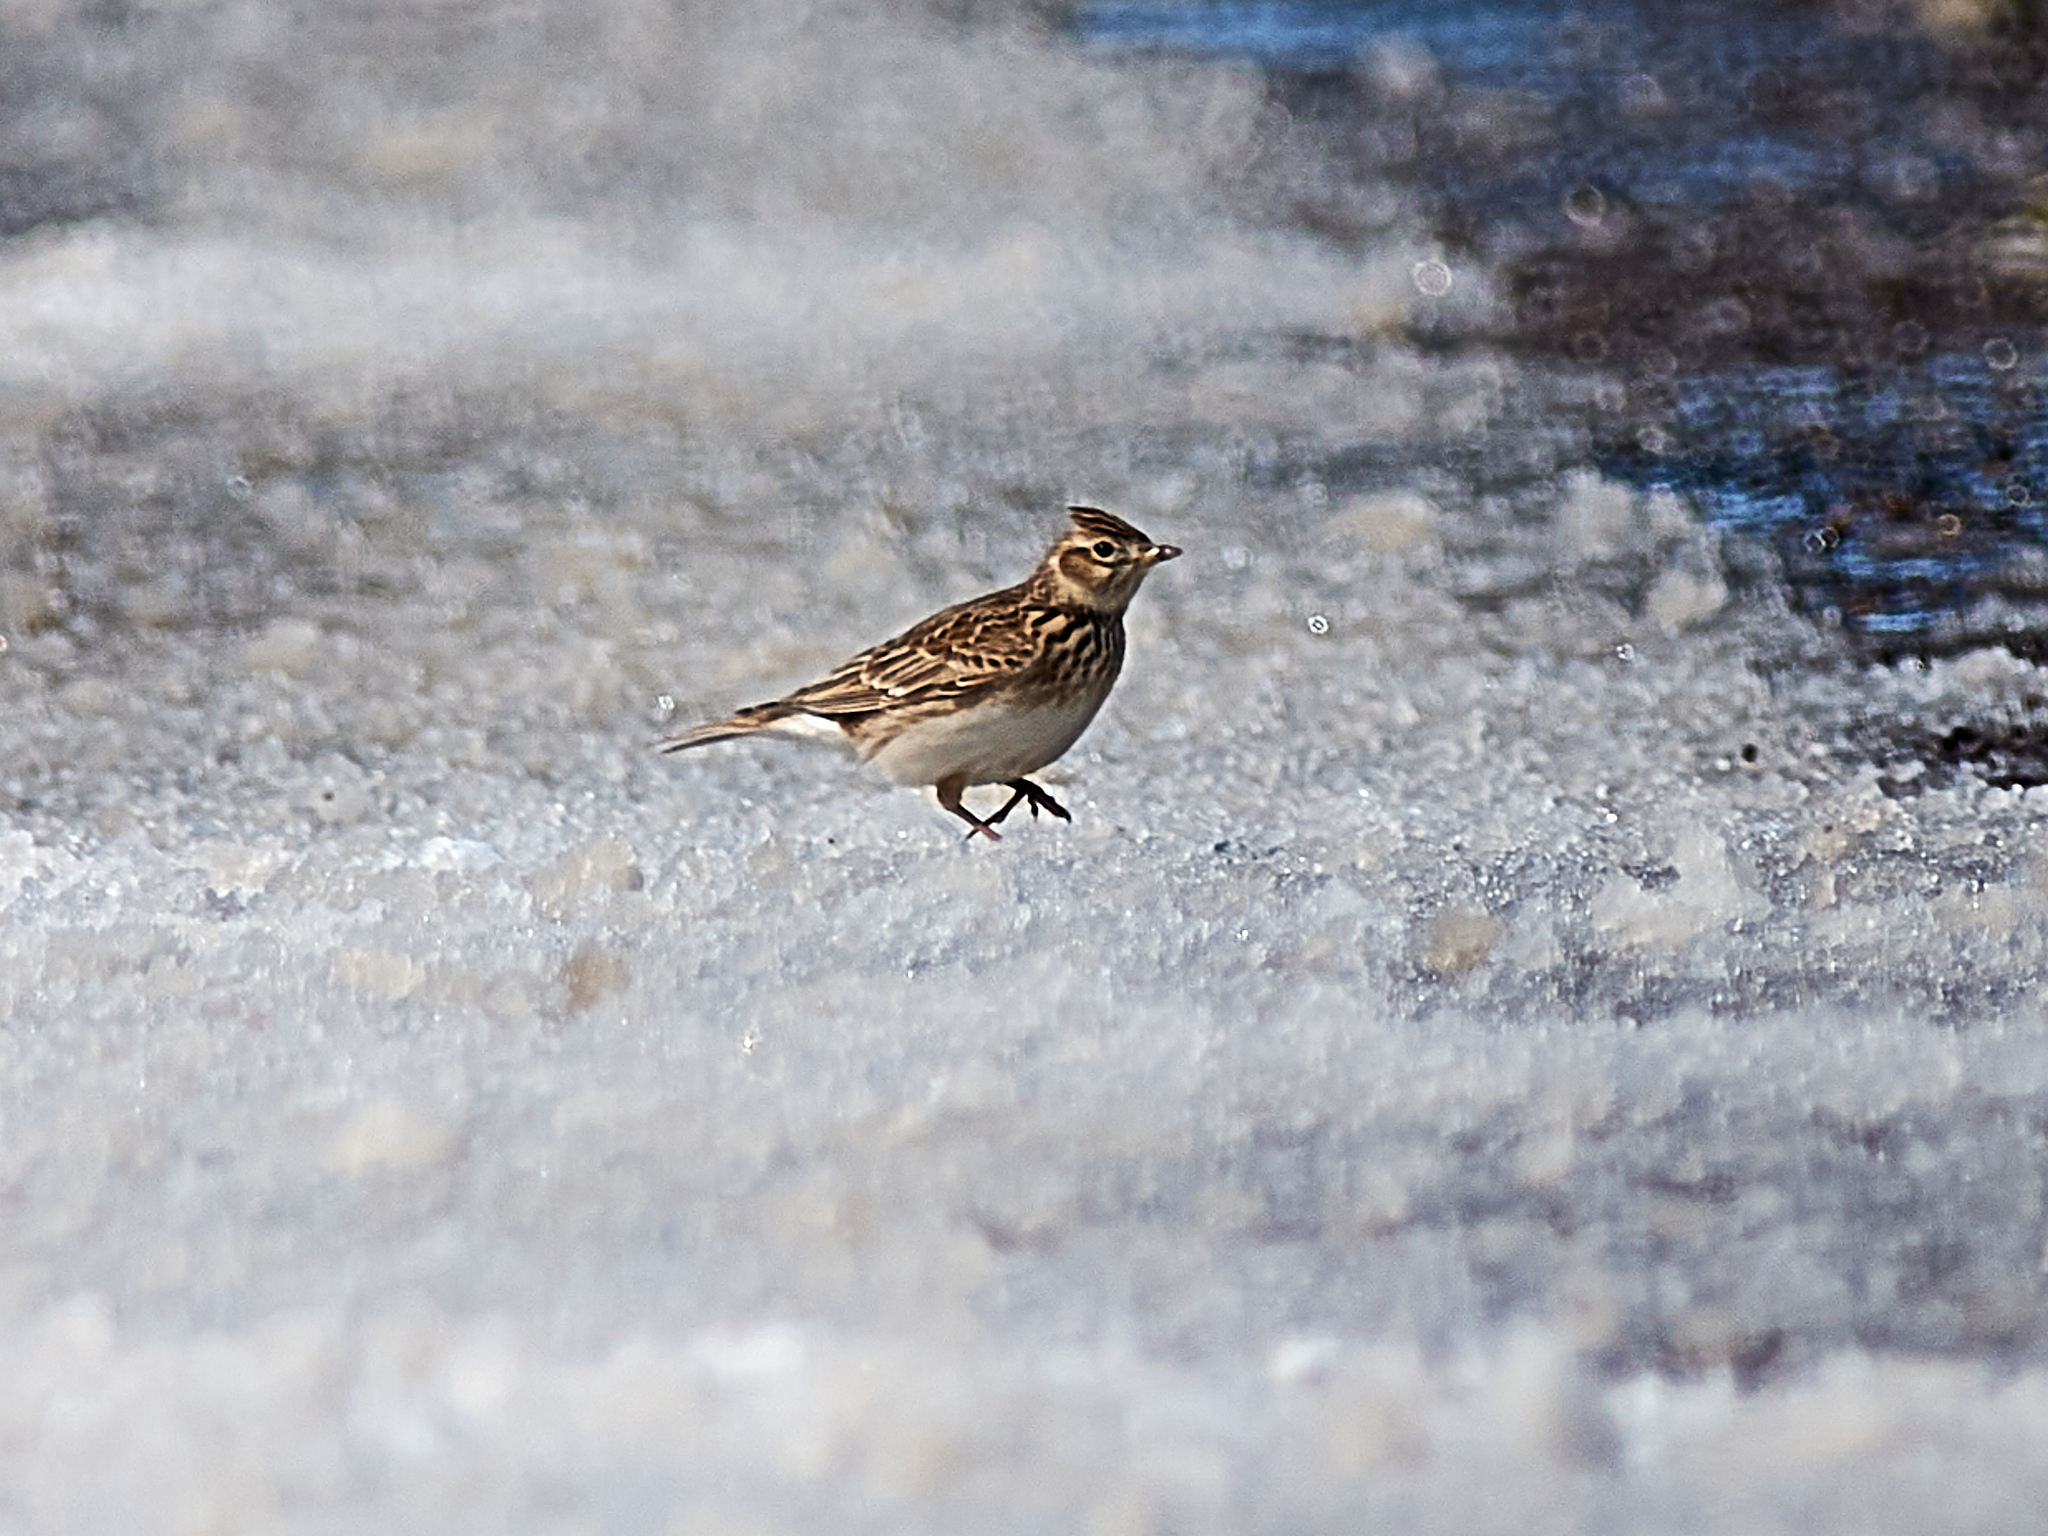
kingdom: Animalia
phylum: Chordata
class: Aves
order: Passeriformes
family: Alaudidae
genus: Alauda
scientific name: Alauda arvensis
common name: Eurasian skylark
